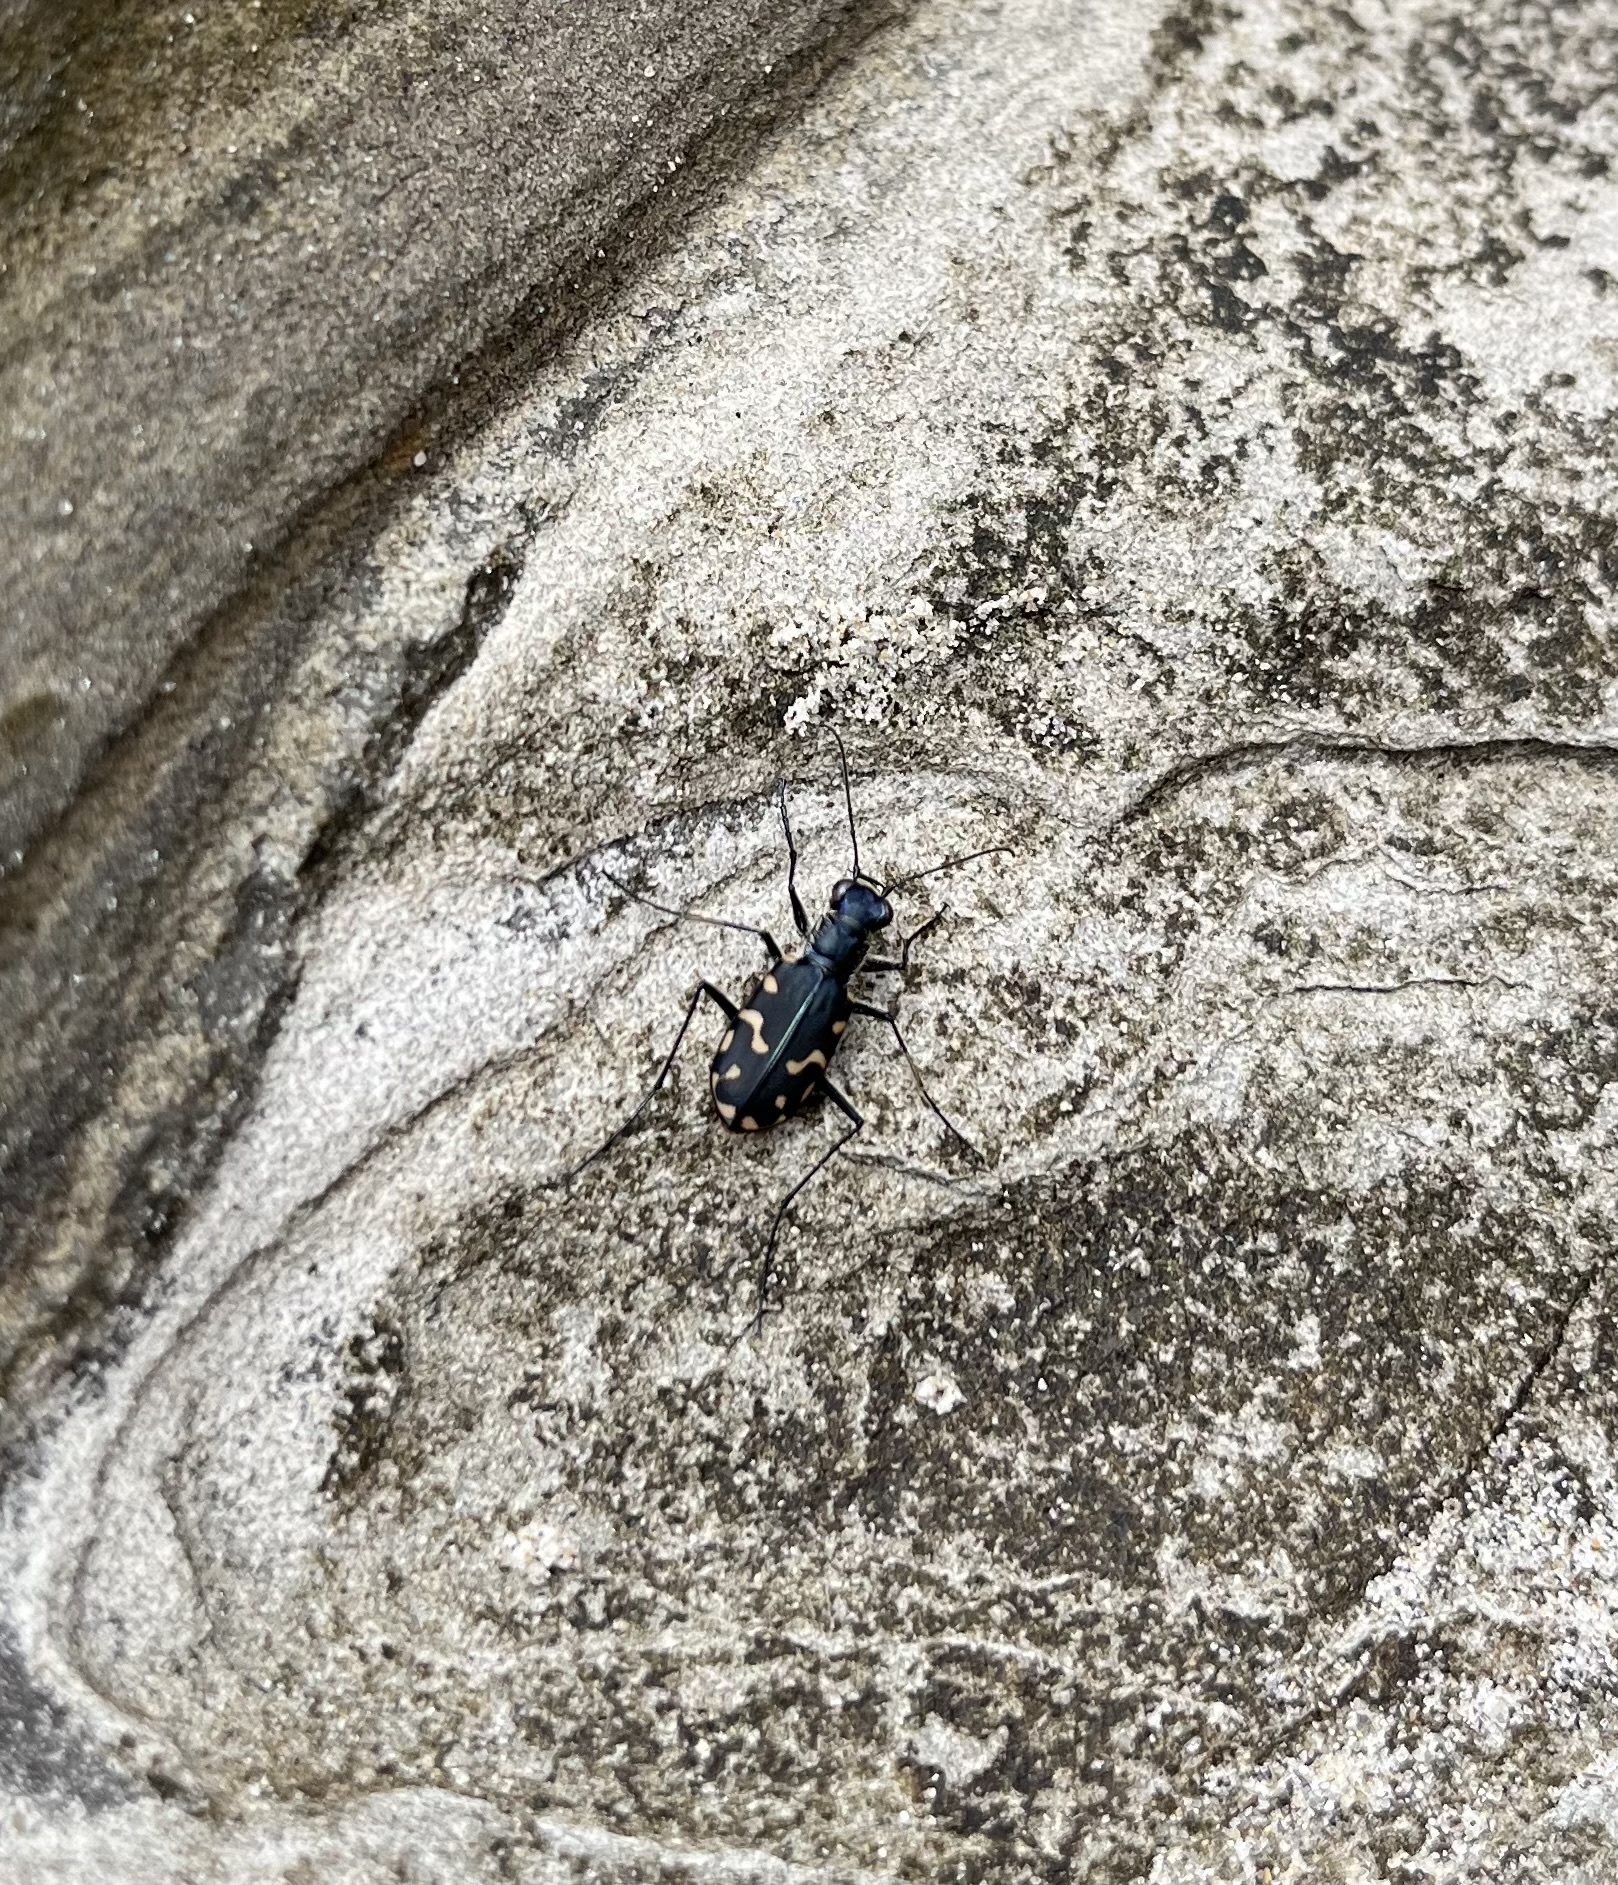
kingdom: Animalia
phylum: Arthropoda
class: Insecta
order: Coleoptera
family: Carabidae
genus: Cicindela
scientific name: Cicindela hemorrhagica
